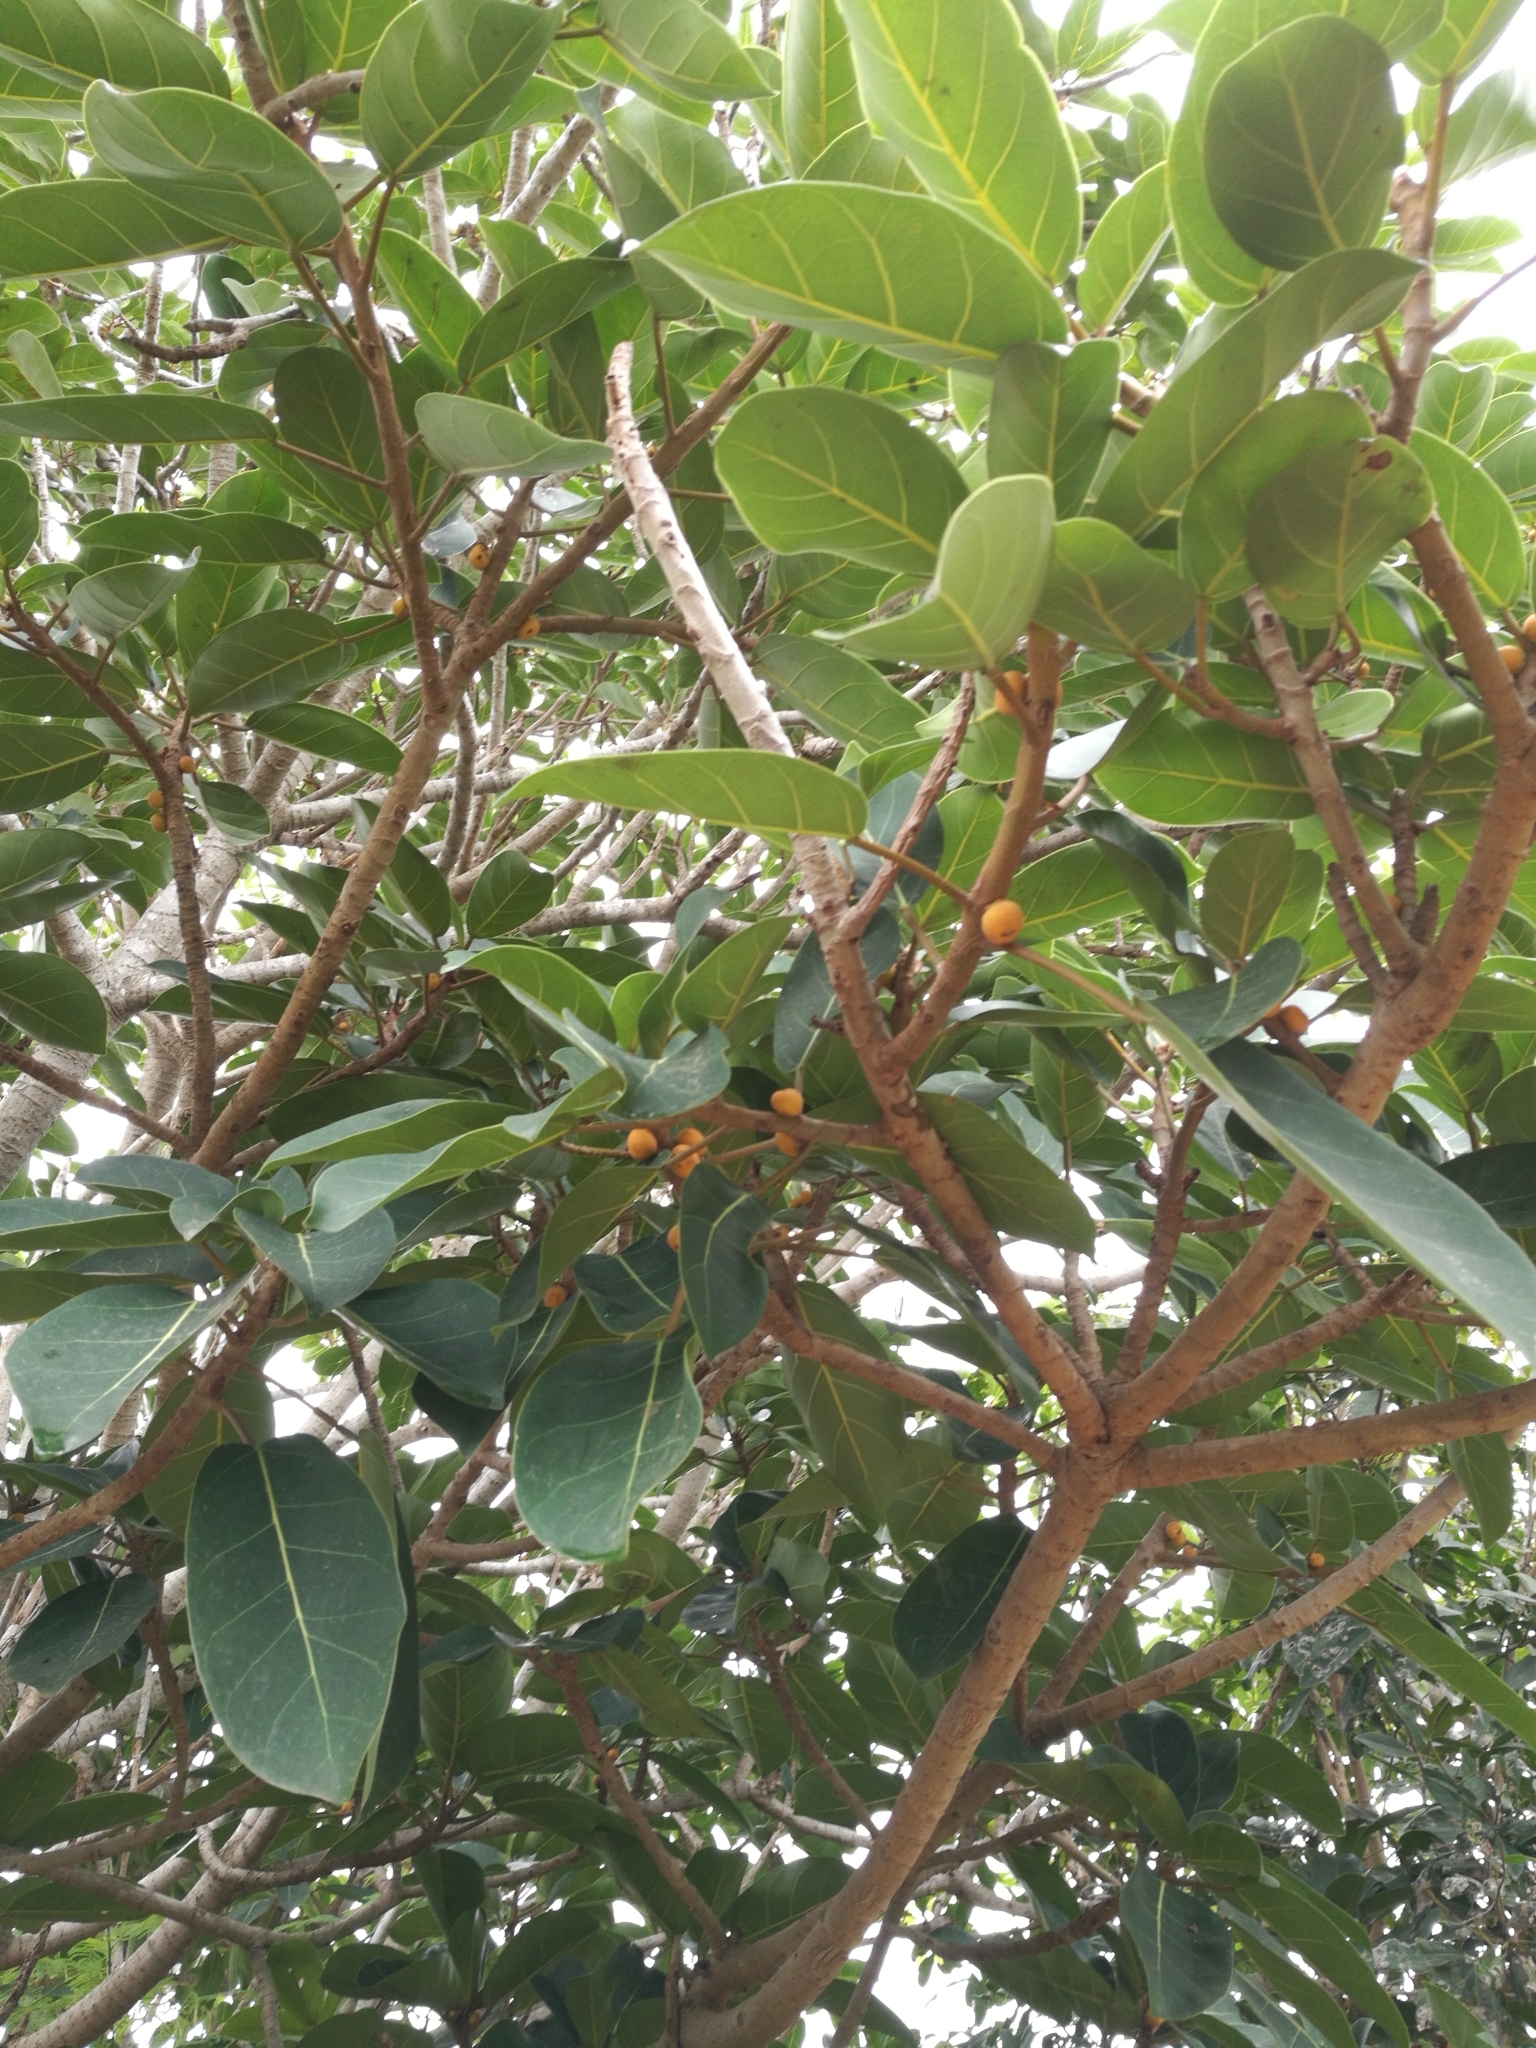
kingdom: Plantae
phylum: Tracheophyta
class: Magnoliopsida
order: Rosales
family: Moraceae
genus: Ficus
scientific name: Ficus lutea
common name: Giant-leaved fig
